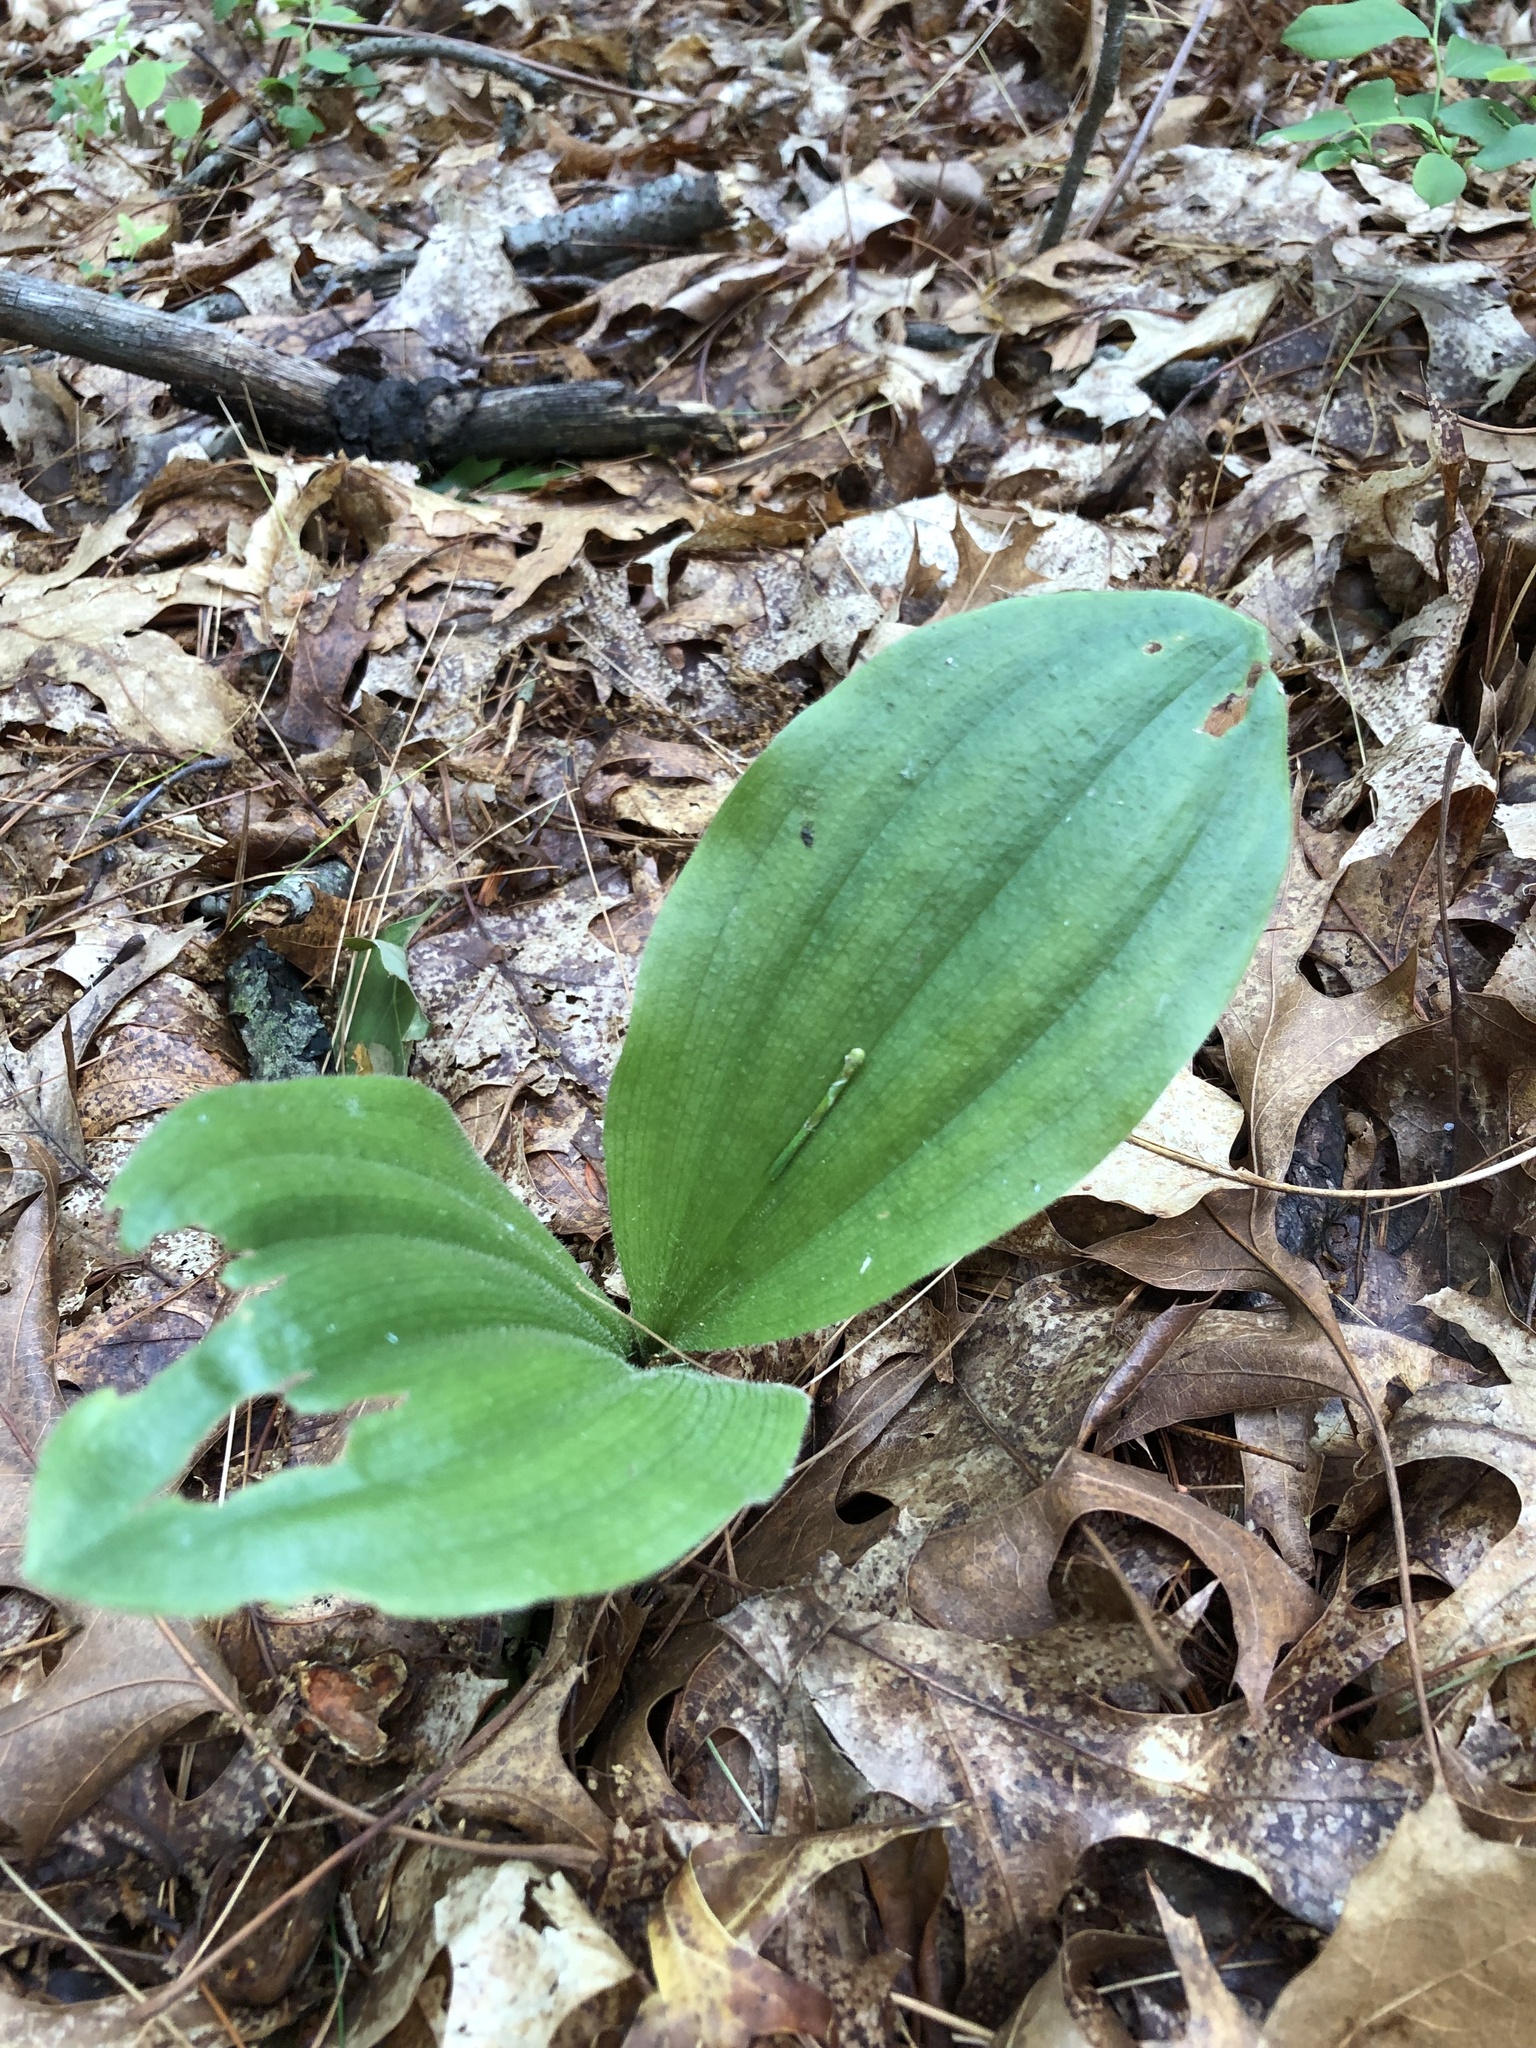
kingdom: Plantae
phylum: Tracheophyta
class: Liliopsida
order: Asparagales
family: Orchidaceae
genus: Cypripedium
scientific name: Cypripedium acaule
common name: Pink lady's-slipper
